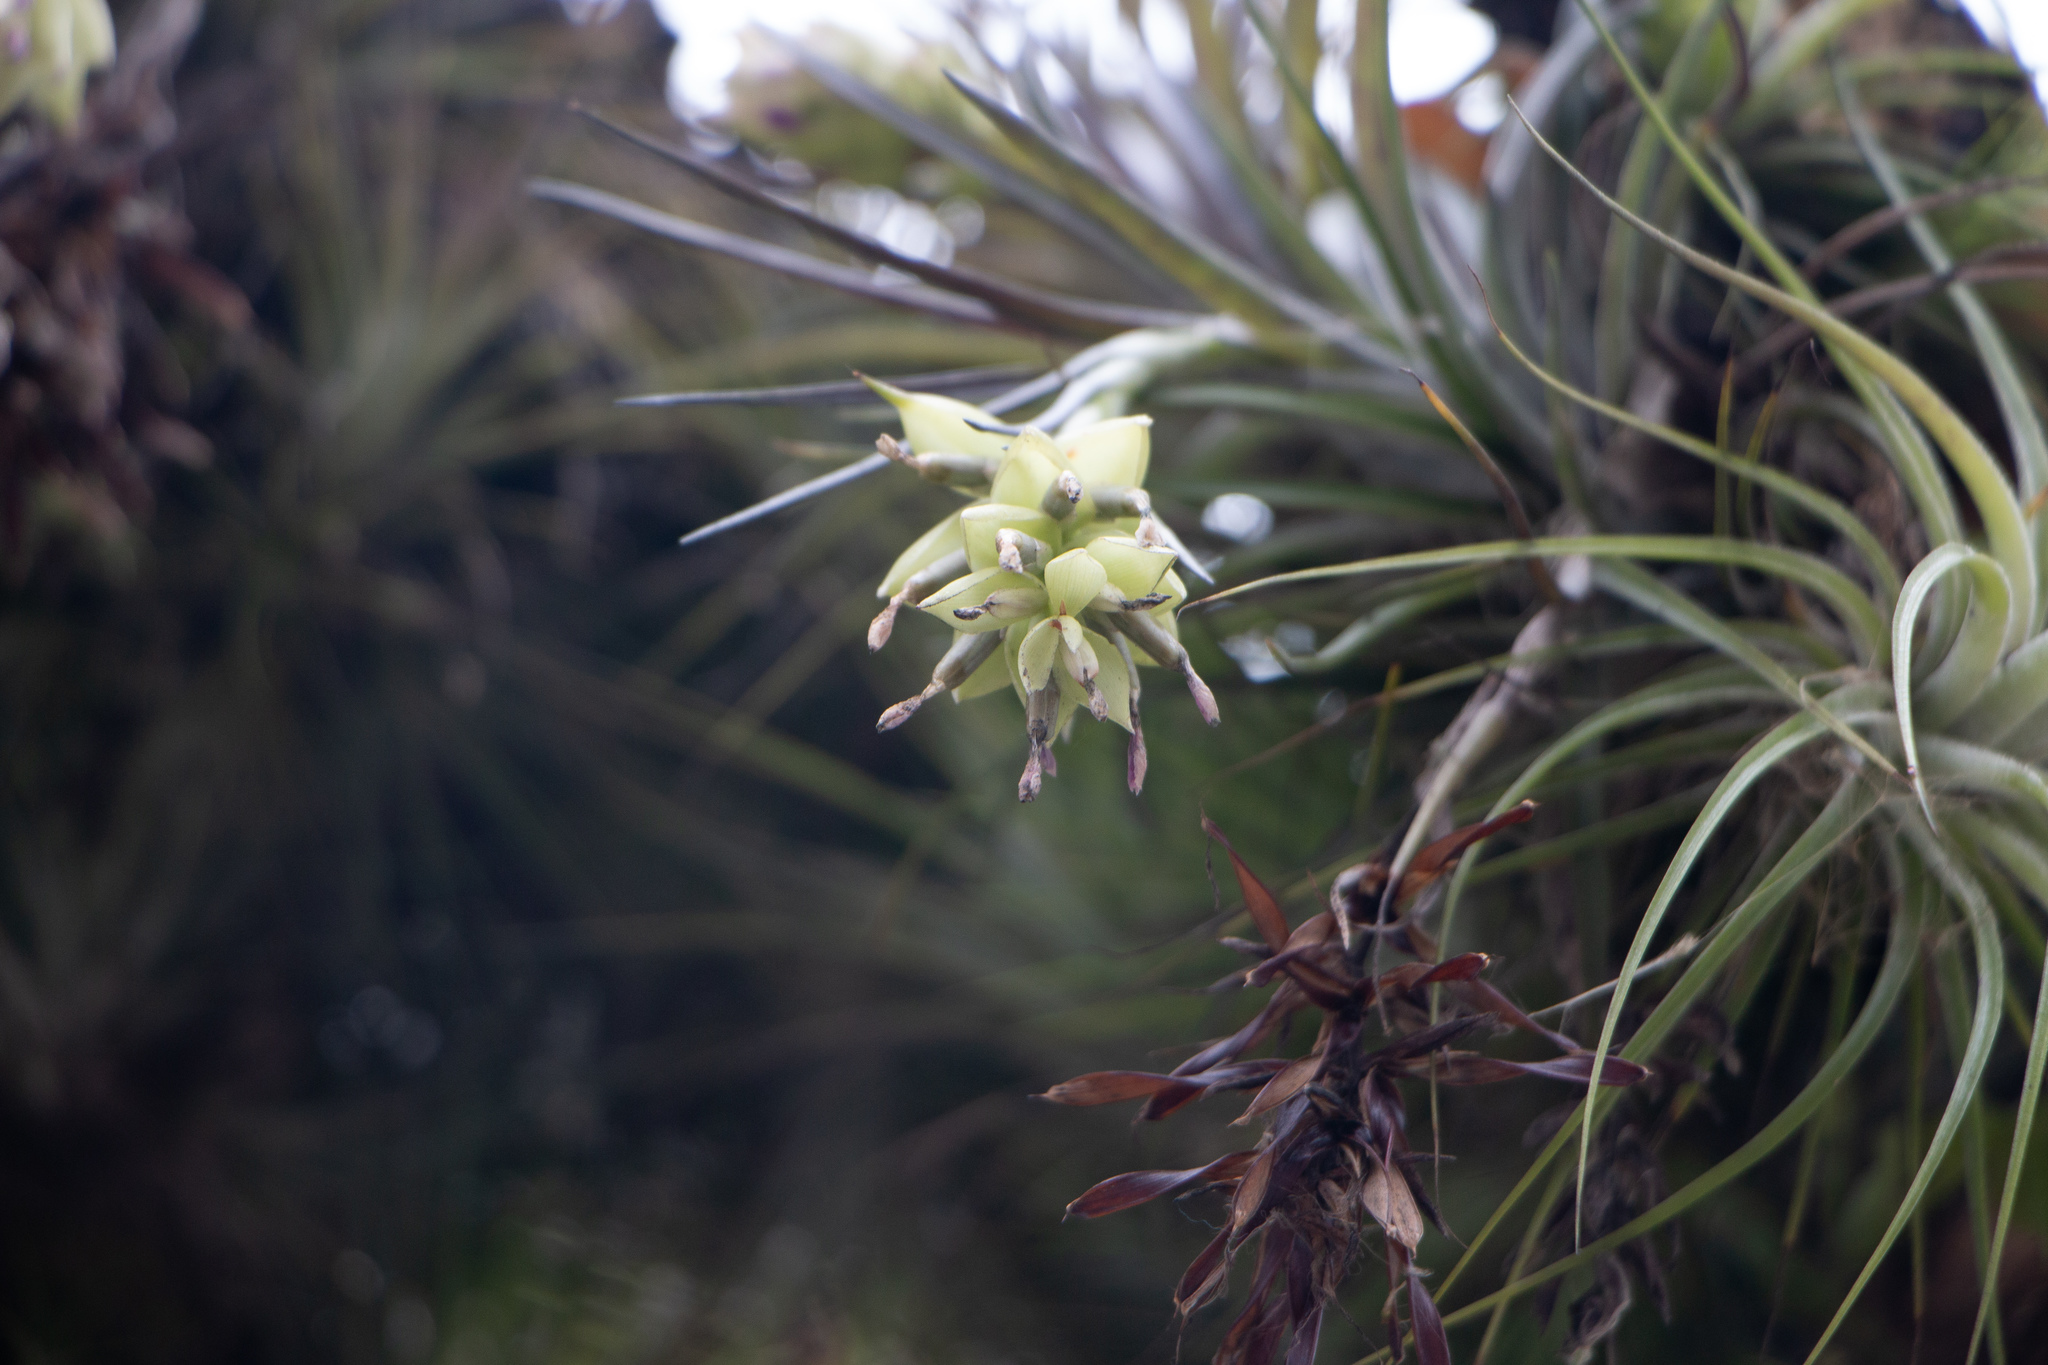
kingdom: Plantae
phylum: Tracheophyta
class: Liliopsida
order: Poales
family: Bromeliaceae
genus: Tillandsia
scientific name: Tillandsia stricta
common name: Airplant
